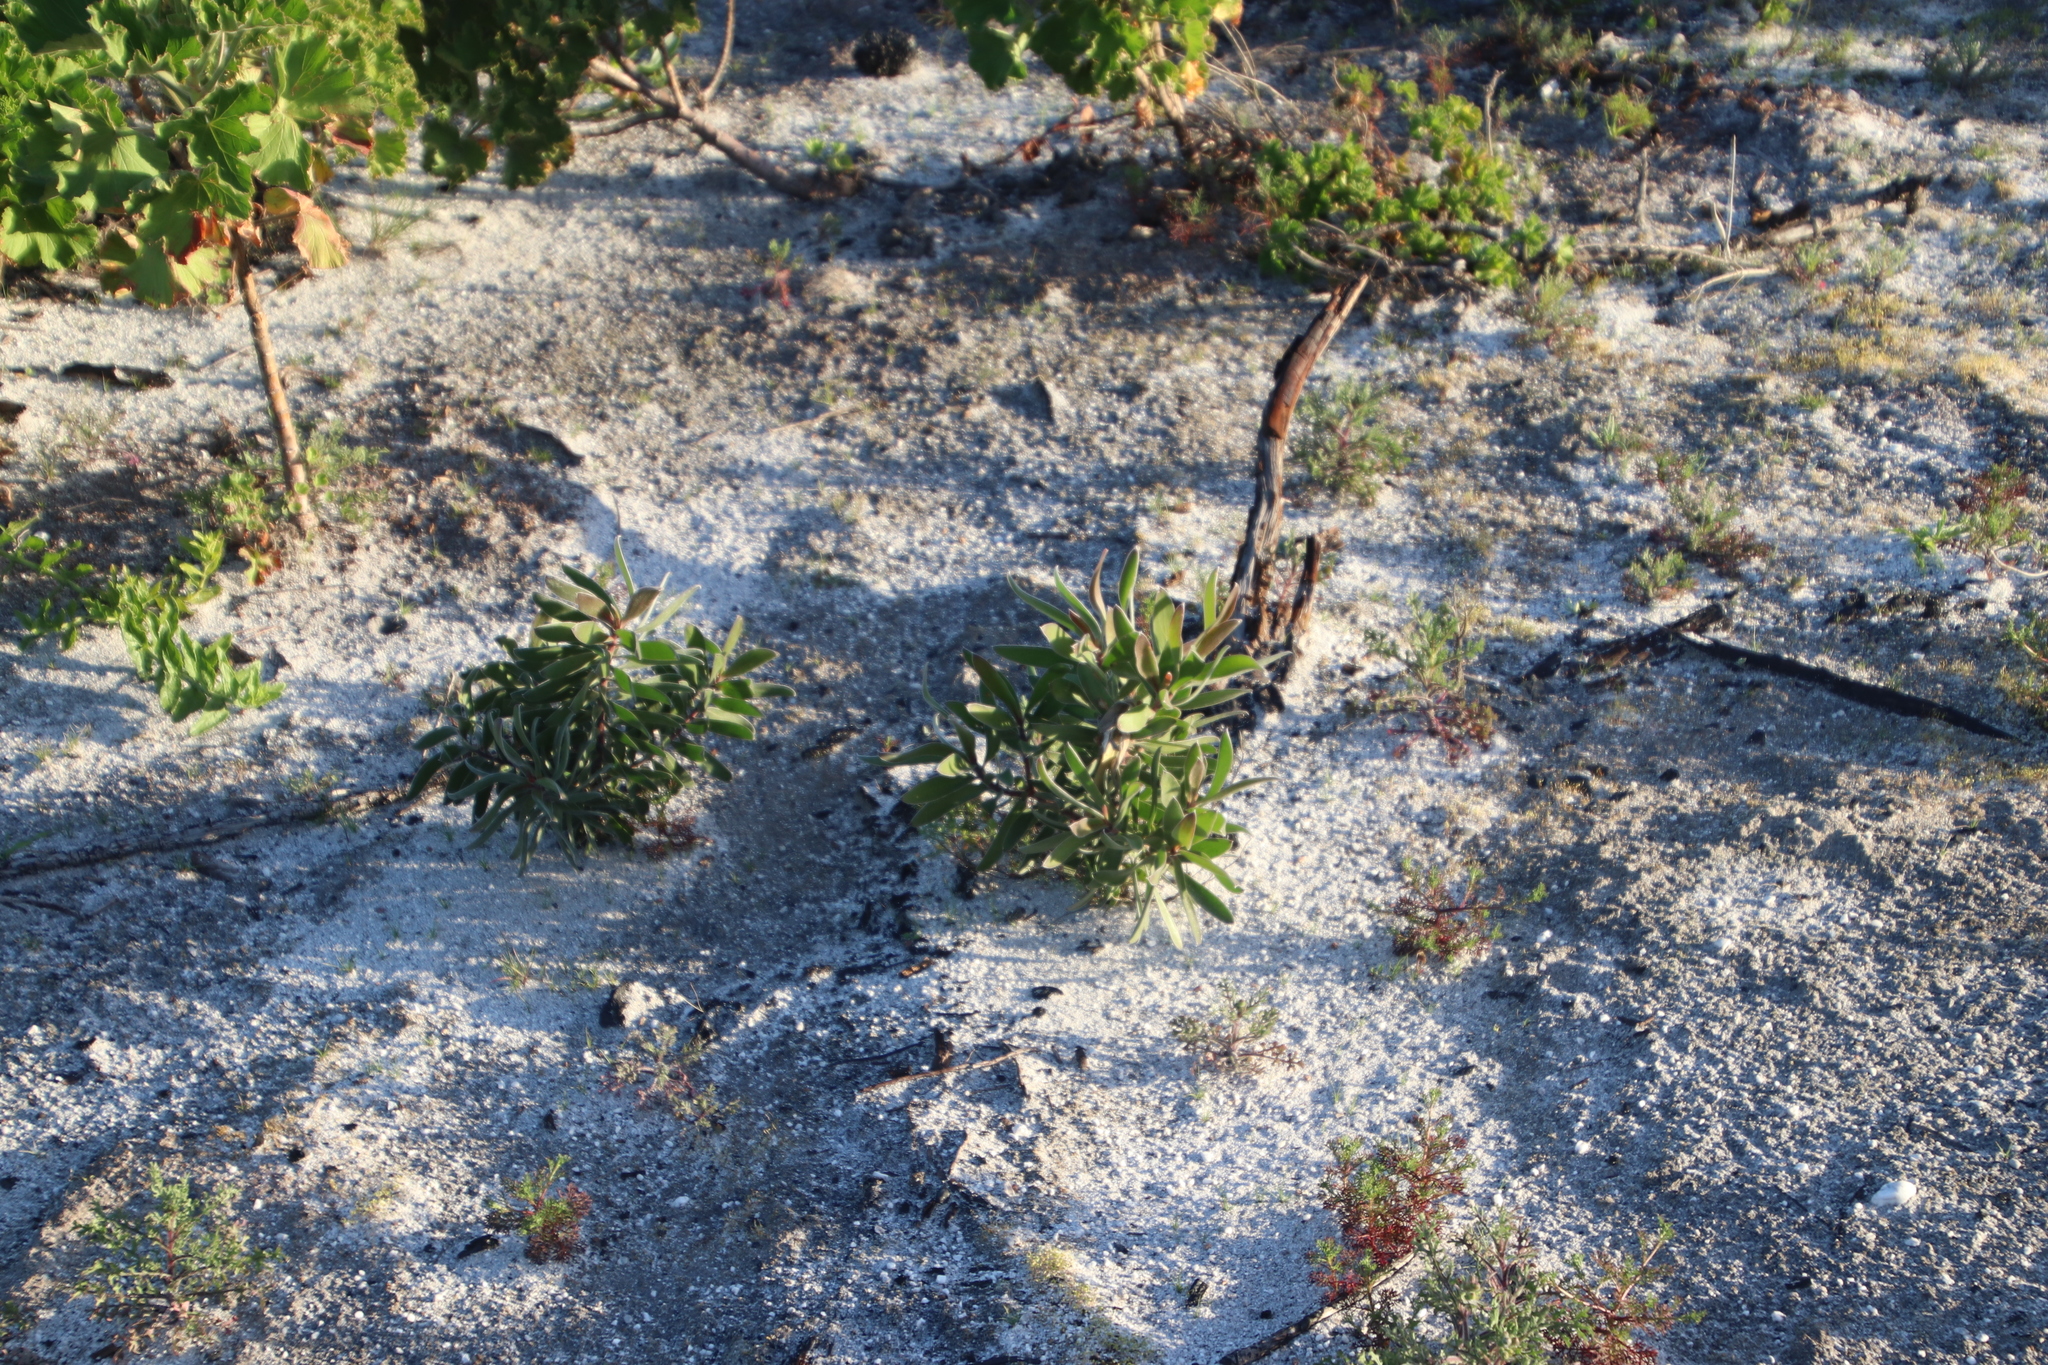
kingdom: Plantae
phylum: Tracheophyta
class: Magnoliopsida
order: Proteales
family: Proteaceae
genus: Leucadendron
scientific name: Leucadendron laureolum
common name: Golden sunshinebush
